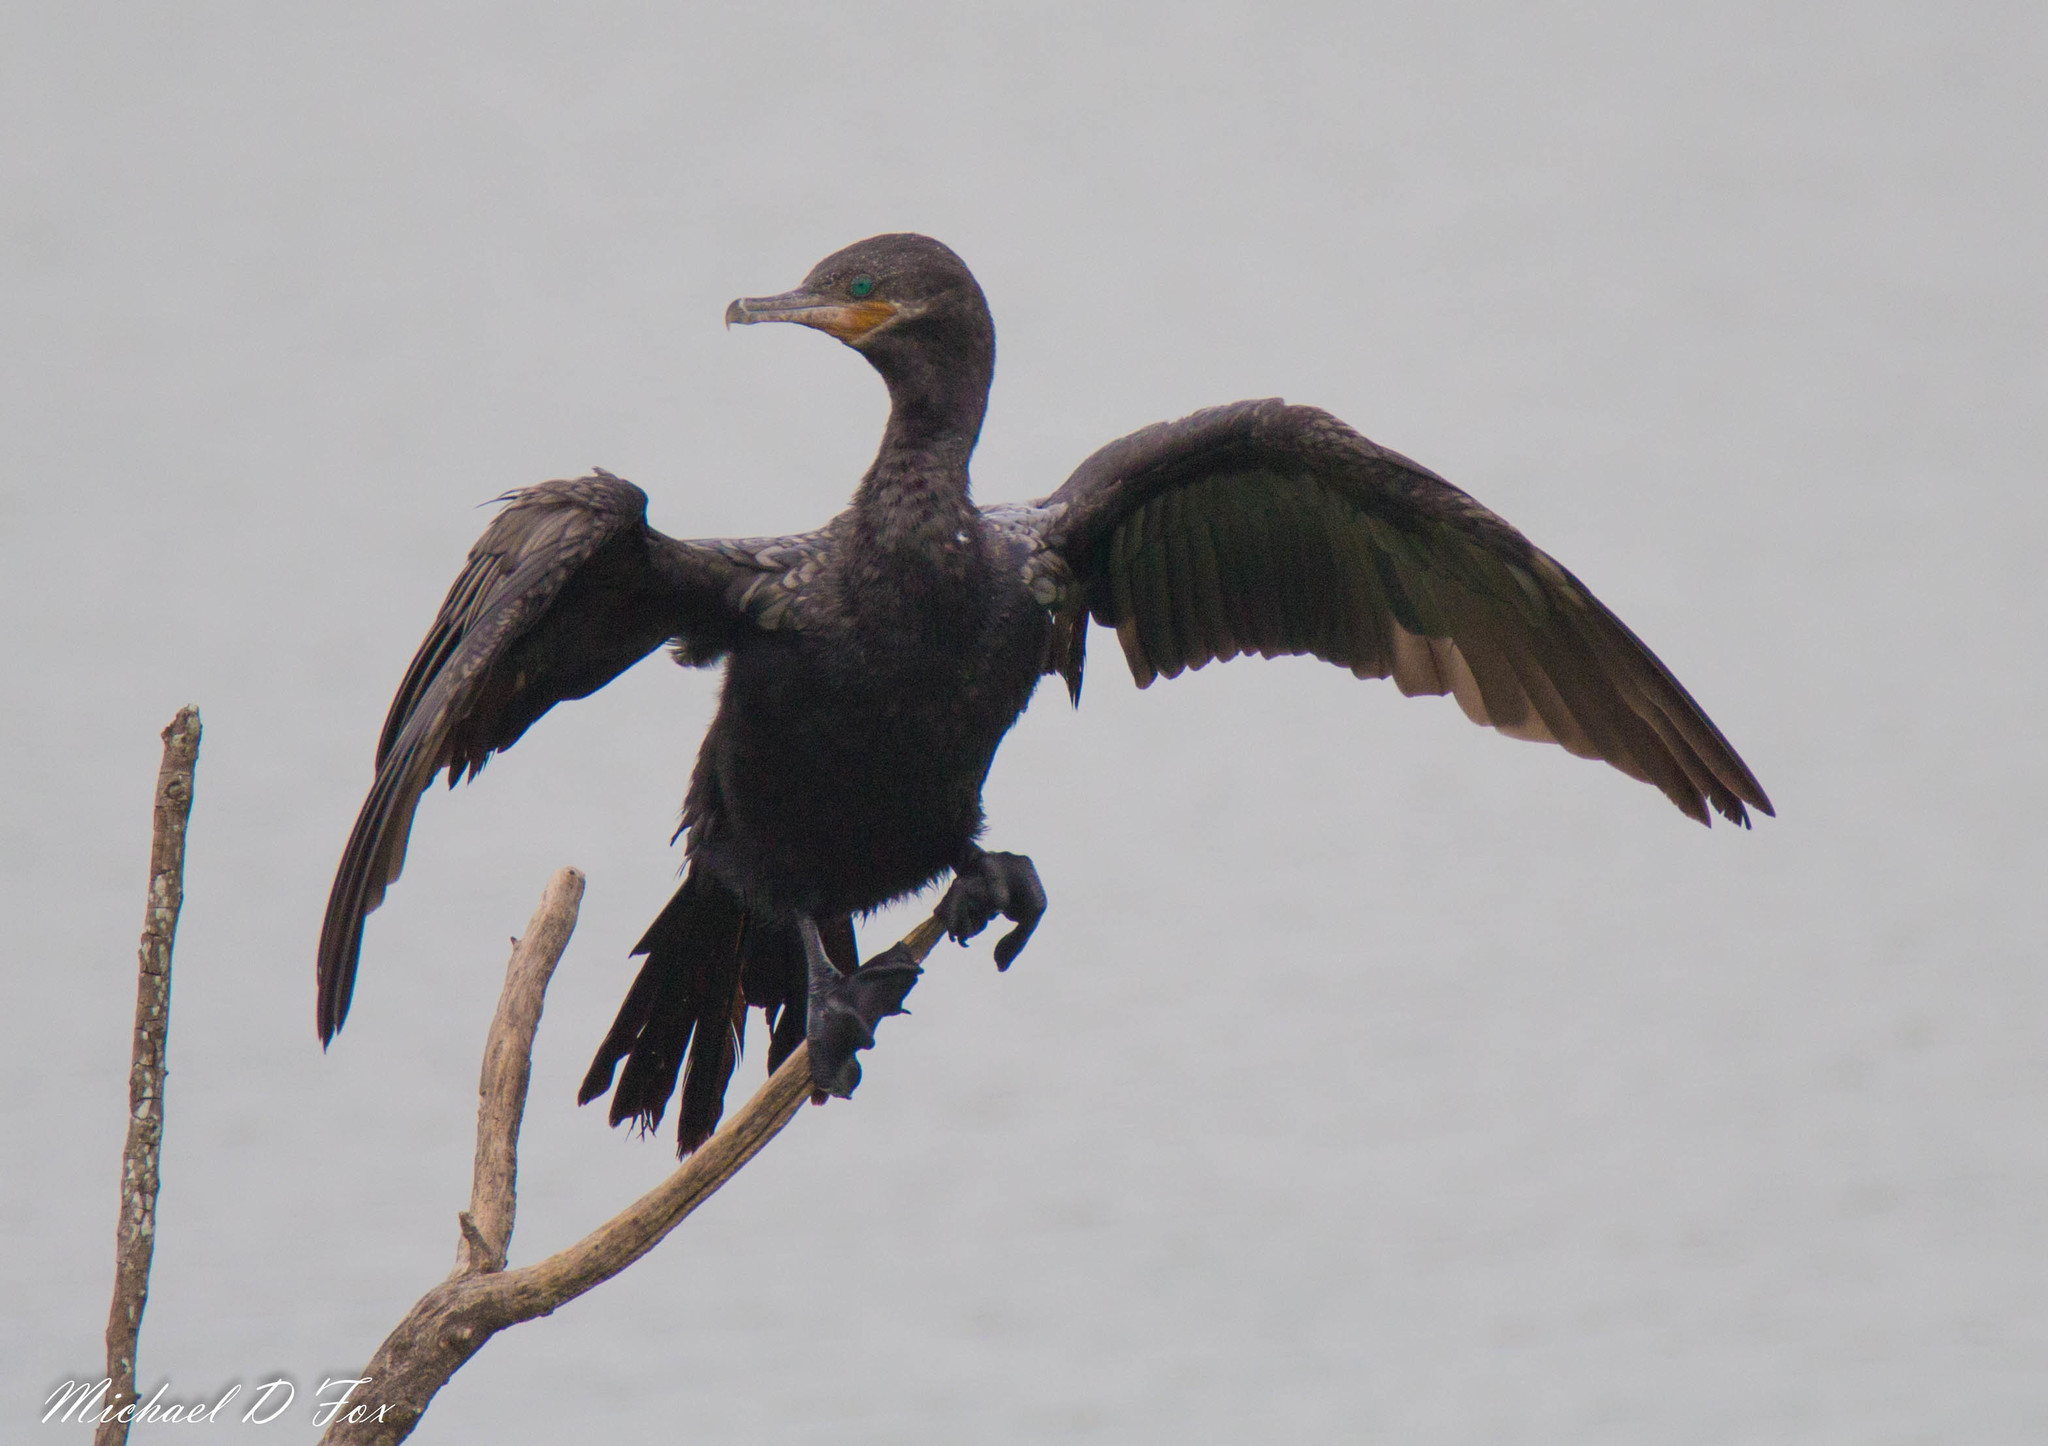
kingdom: Animalia
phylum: Chordata
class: Aves
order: Suliformes
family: Phalacrocoracidae
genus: Phalacrocorax
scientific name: Phalacrocorax brasilianus
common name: Neotropic cormorant
